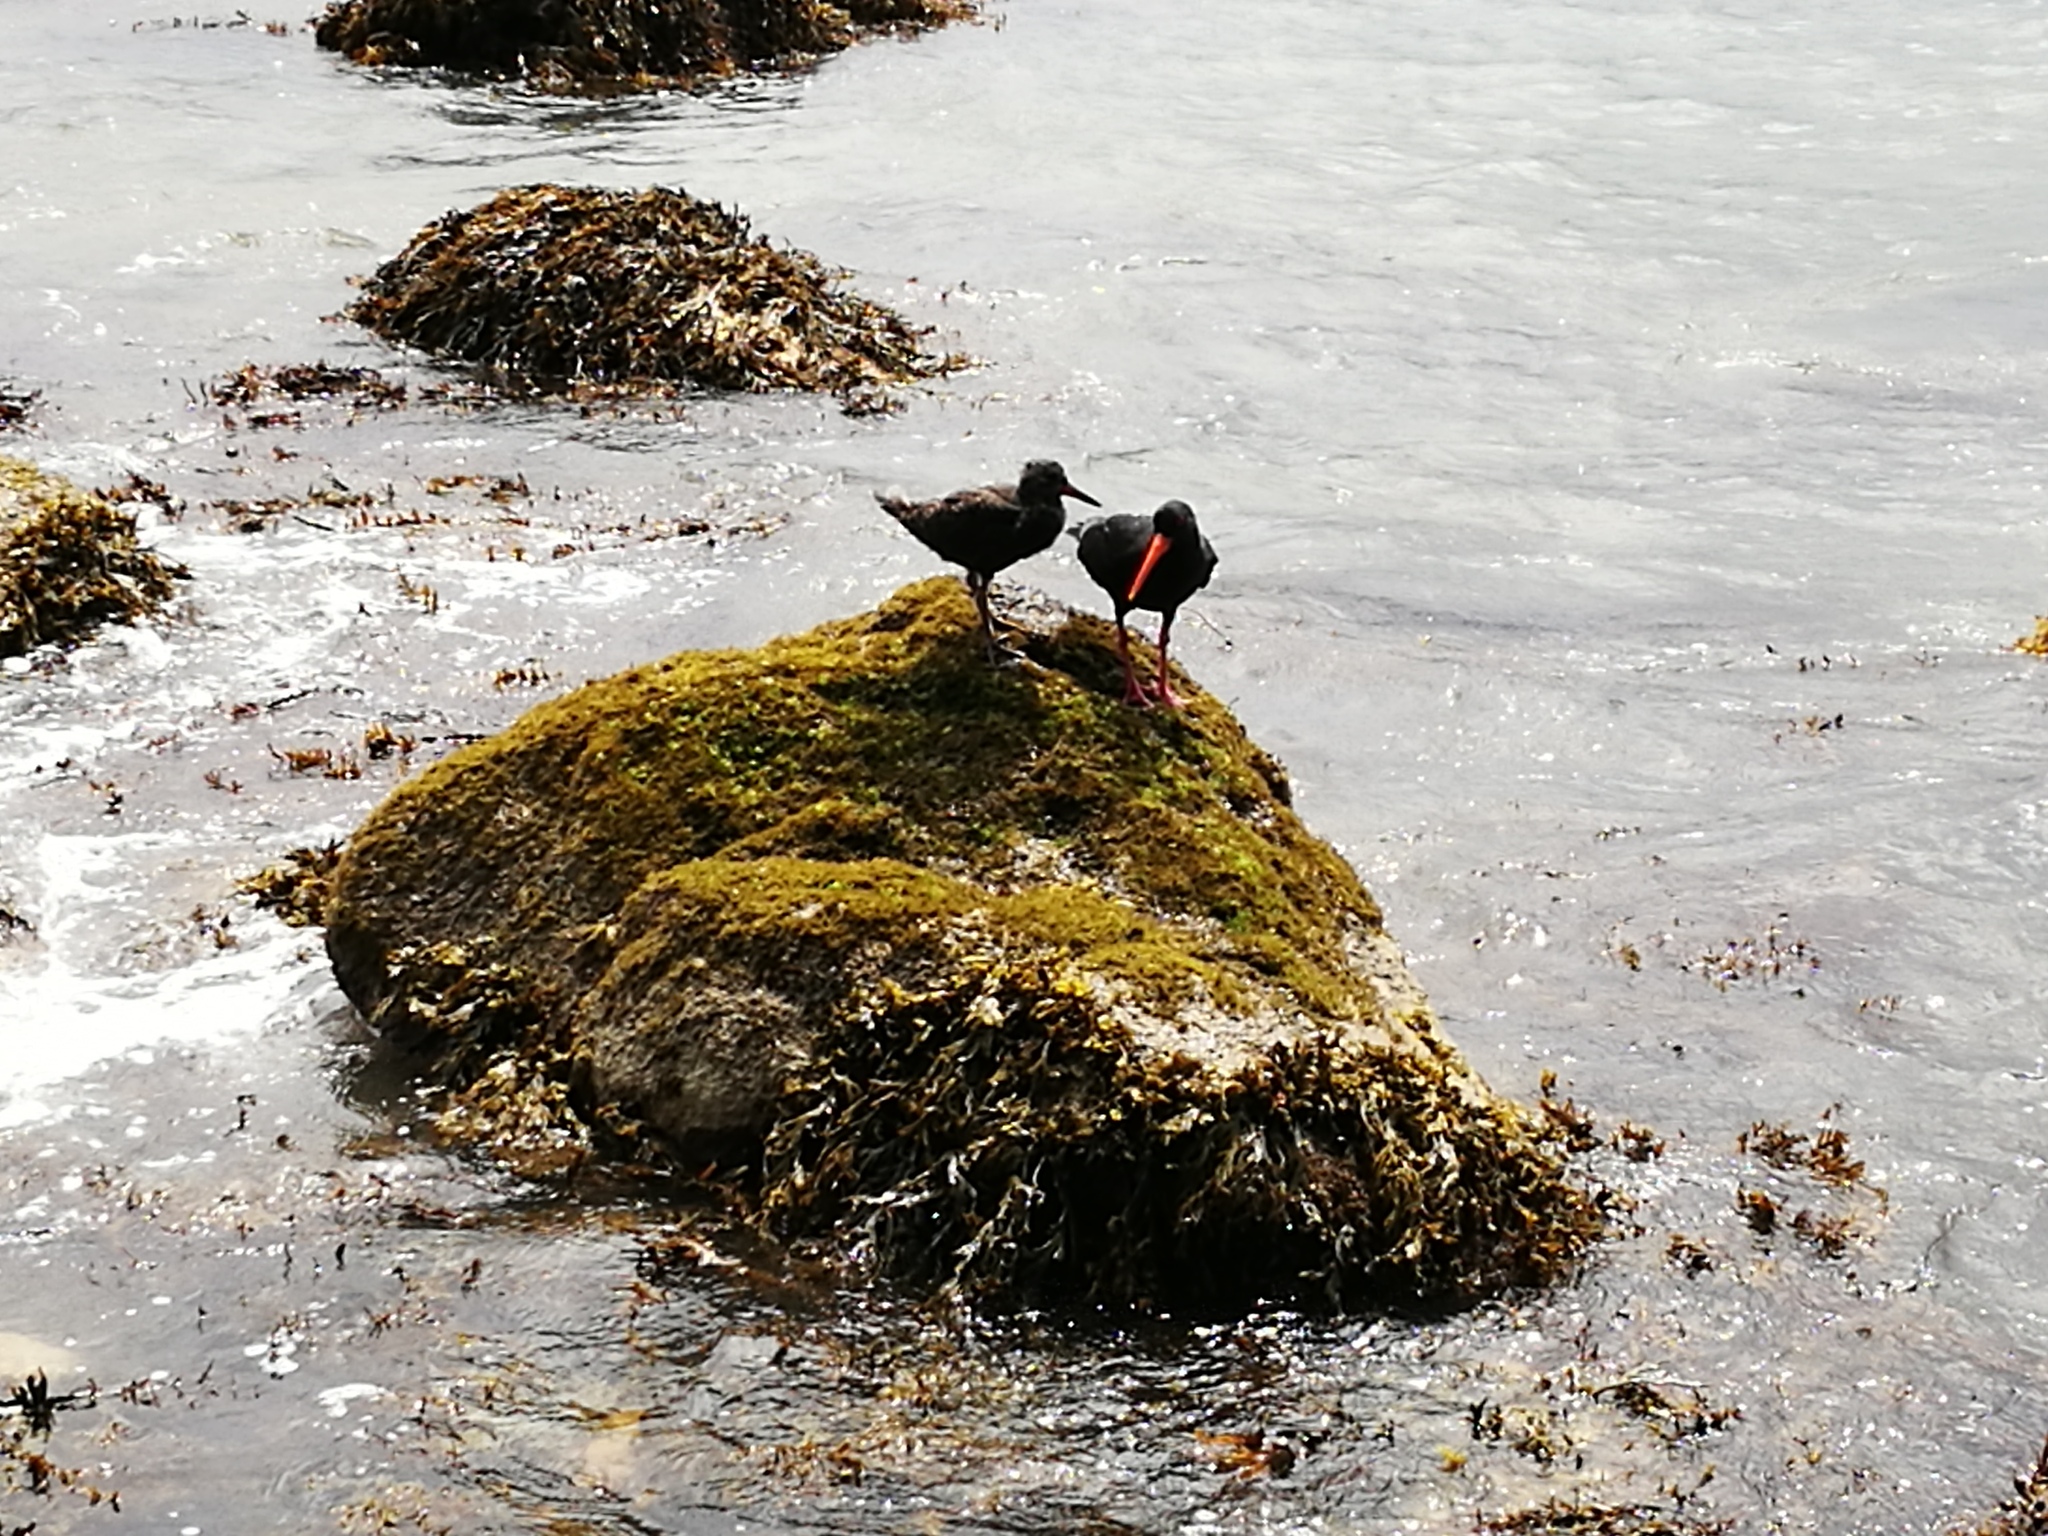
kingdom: Animalia
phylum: Chordata
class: Aves
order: Charadriiformes
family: Haematopodidae
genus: Haematopus
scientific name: Haematopus unicolor
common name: Variable oystercatcher
